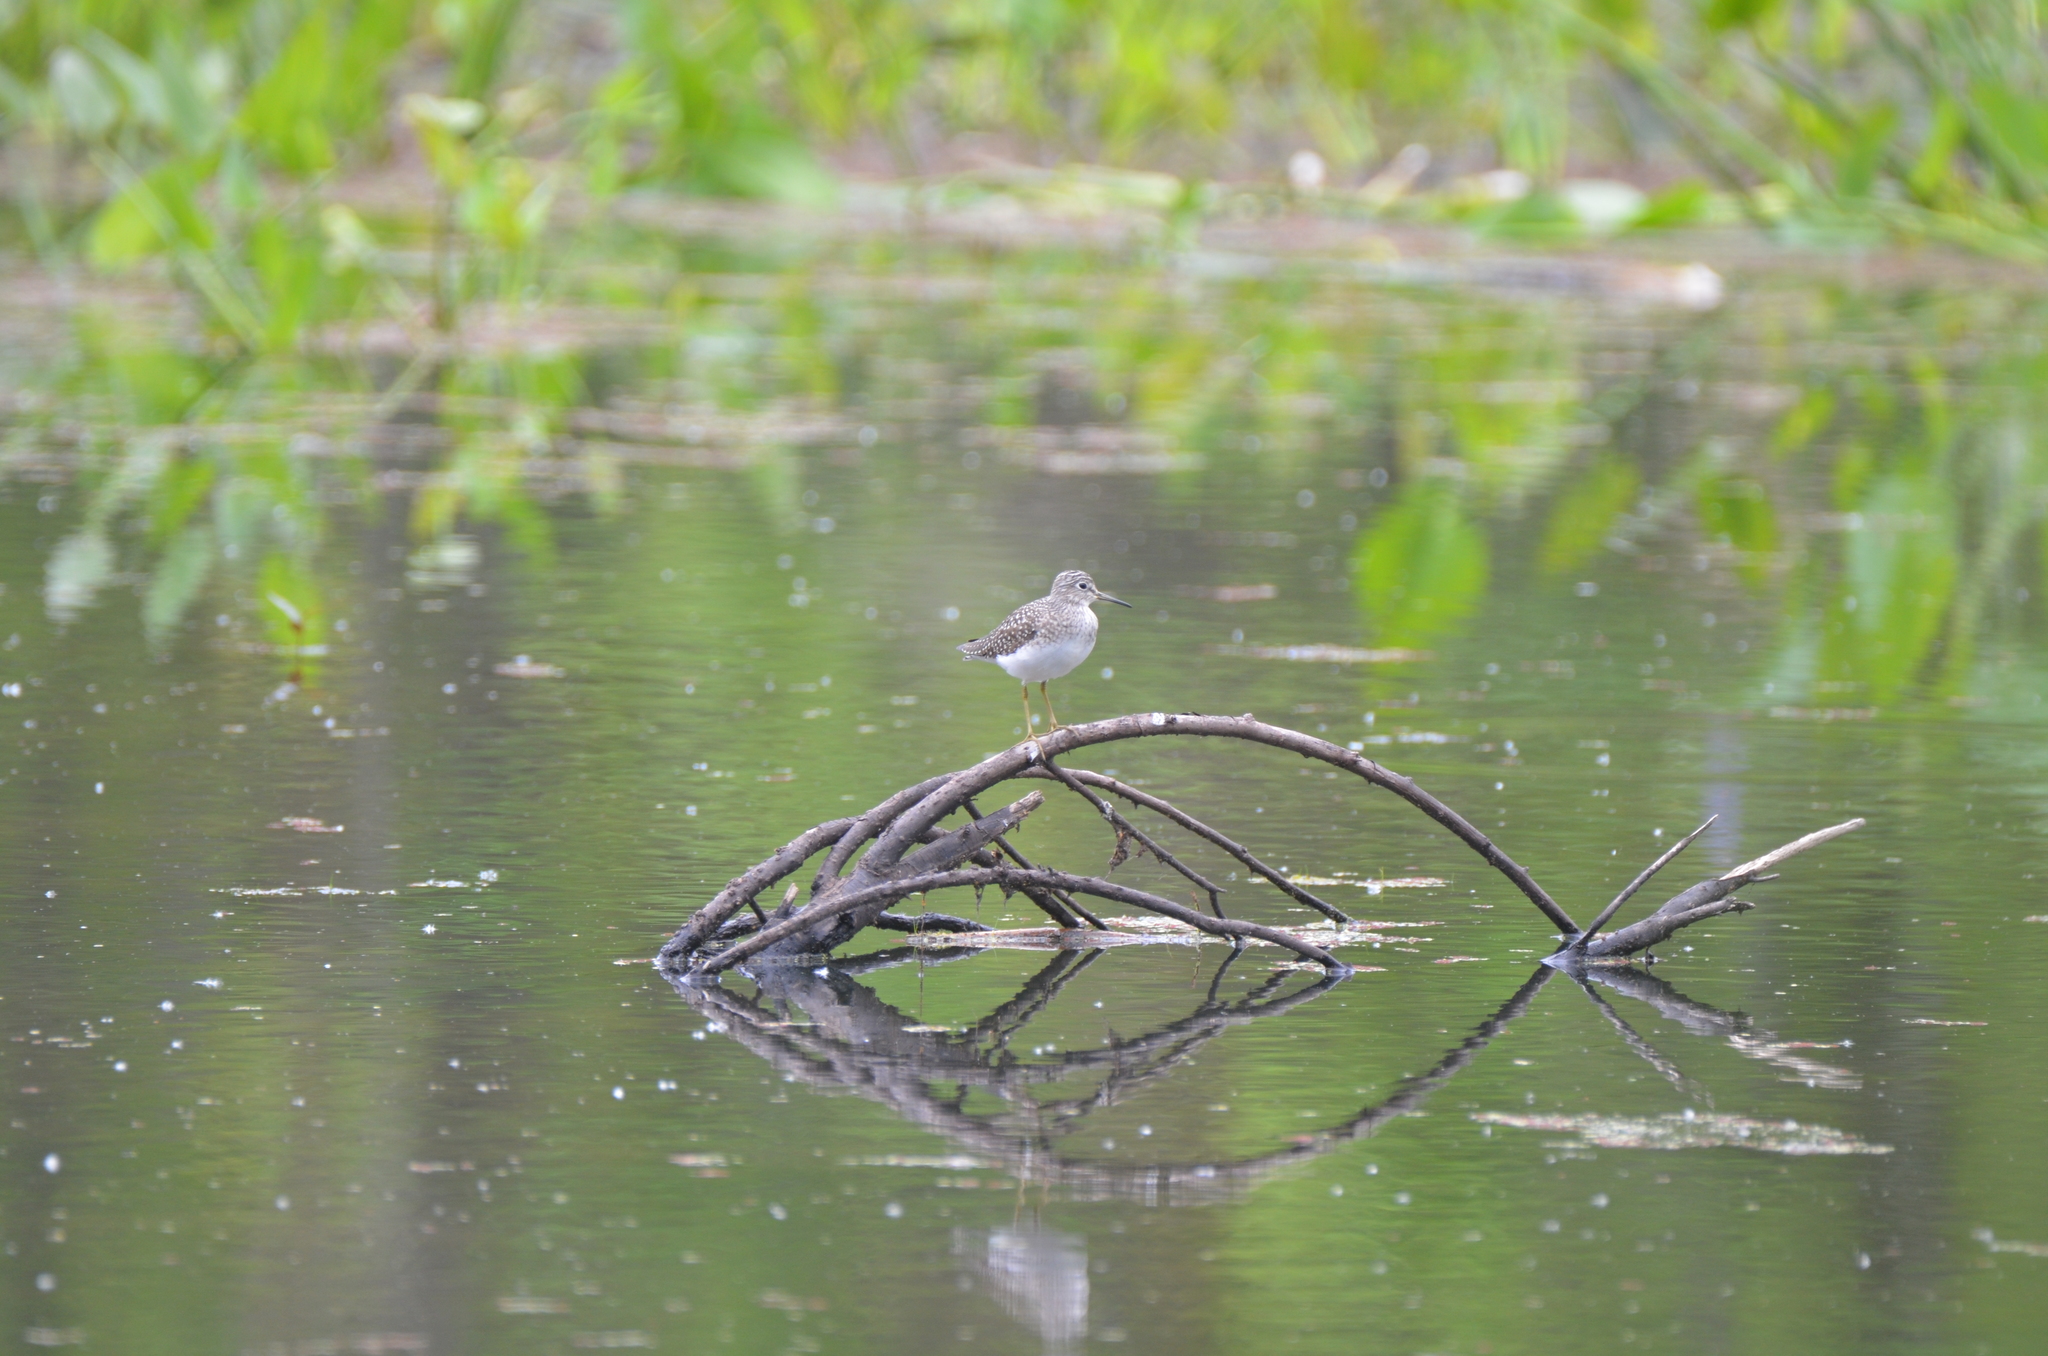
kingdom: Animalia
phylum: Chordata
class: Aves
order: Charadriiformes
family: Scolopacidae
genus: Tringa
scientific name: Tringa solitaria
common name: Solitary sandpiper
